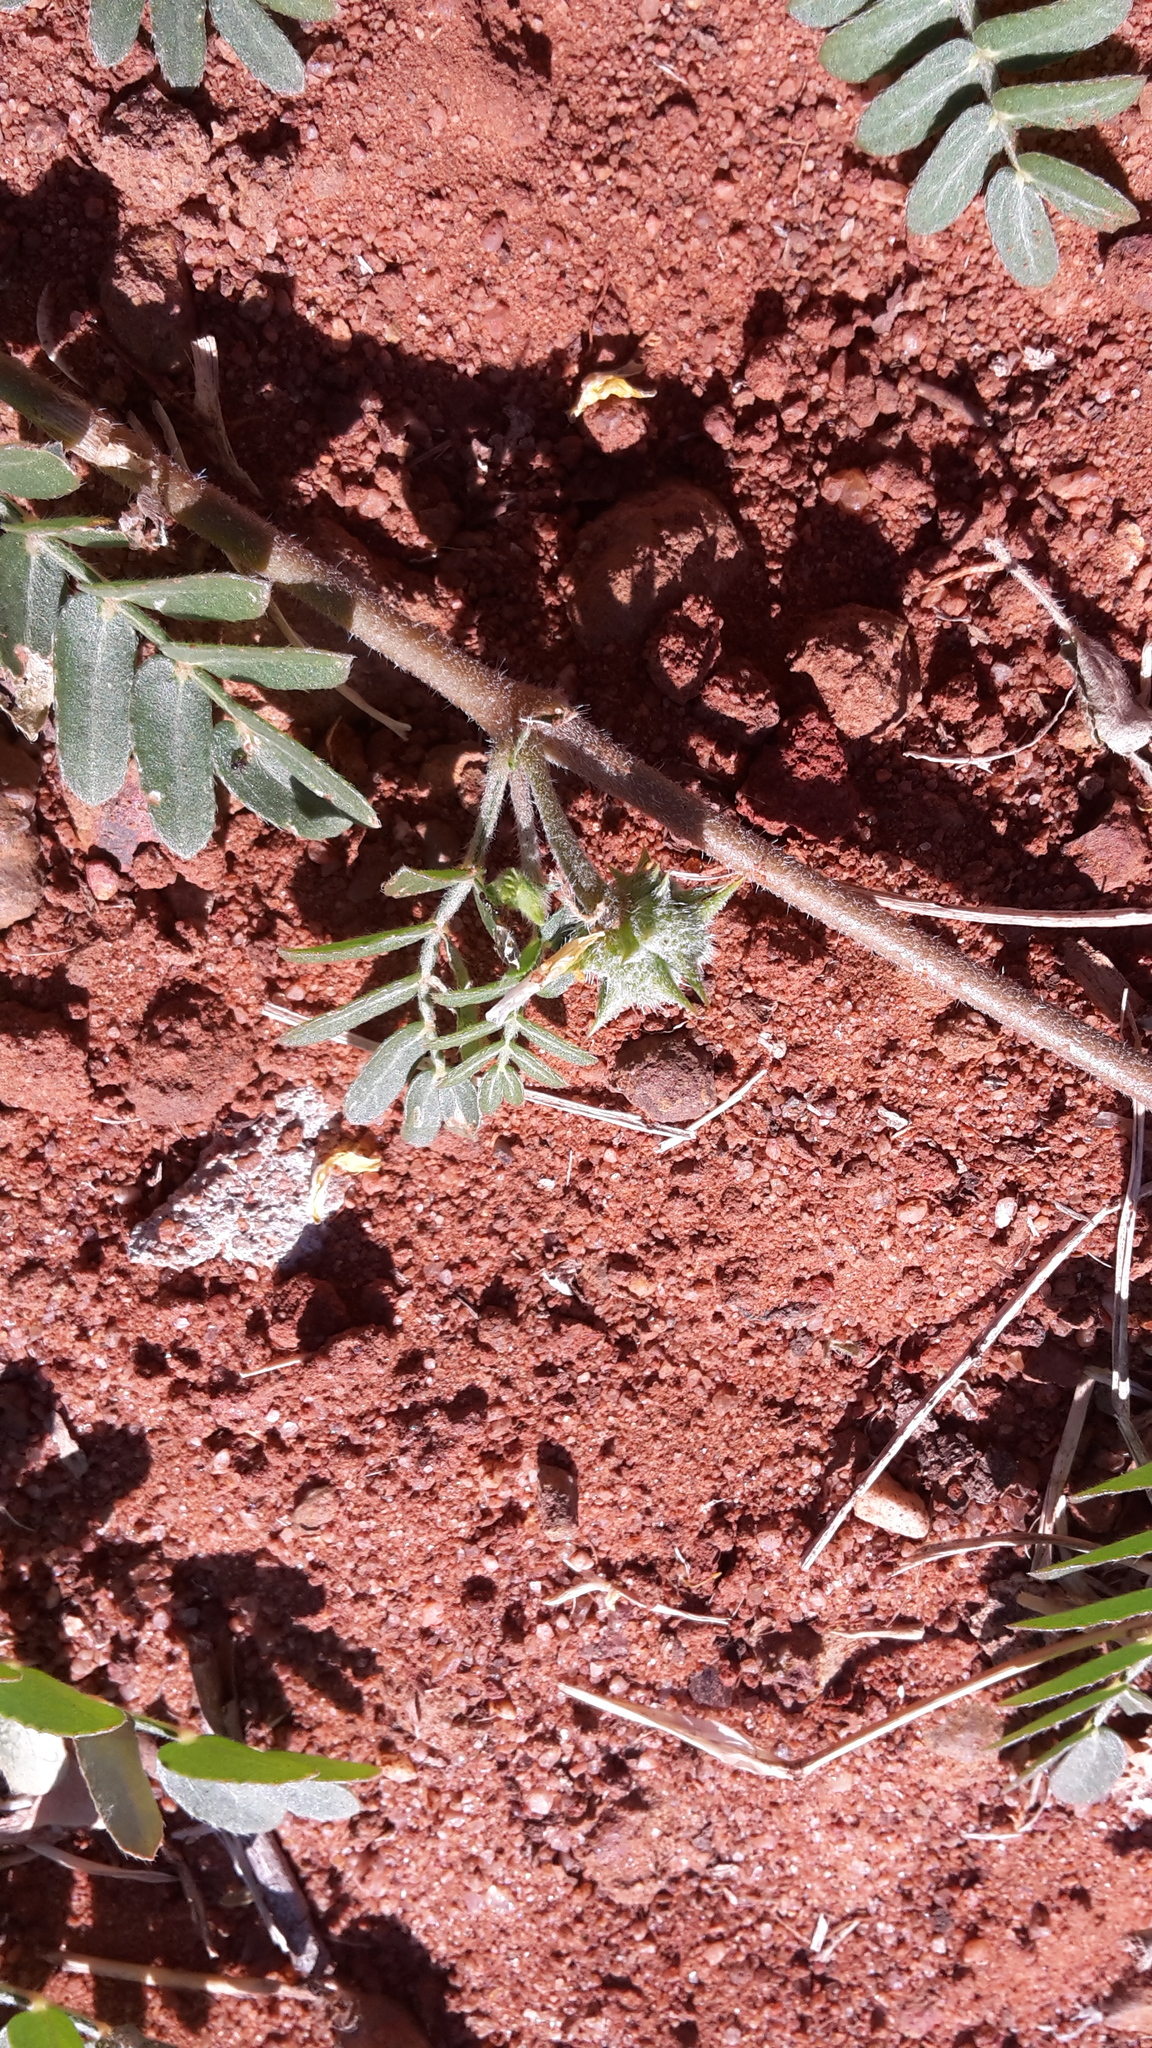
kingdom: Plantae
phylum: Tracheophyta
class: Magnoliopsida
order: Zygophyllales
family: Zygophyllaceae
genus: Tribulus
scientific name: Tribulus terrestris
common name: Puncturevine
